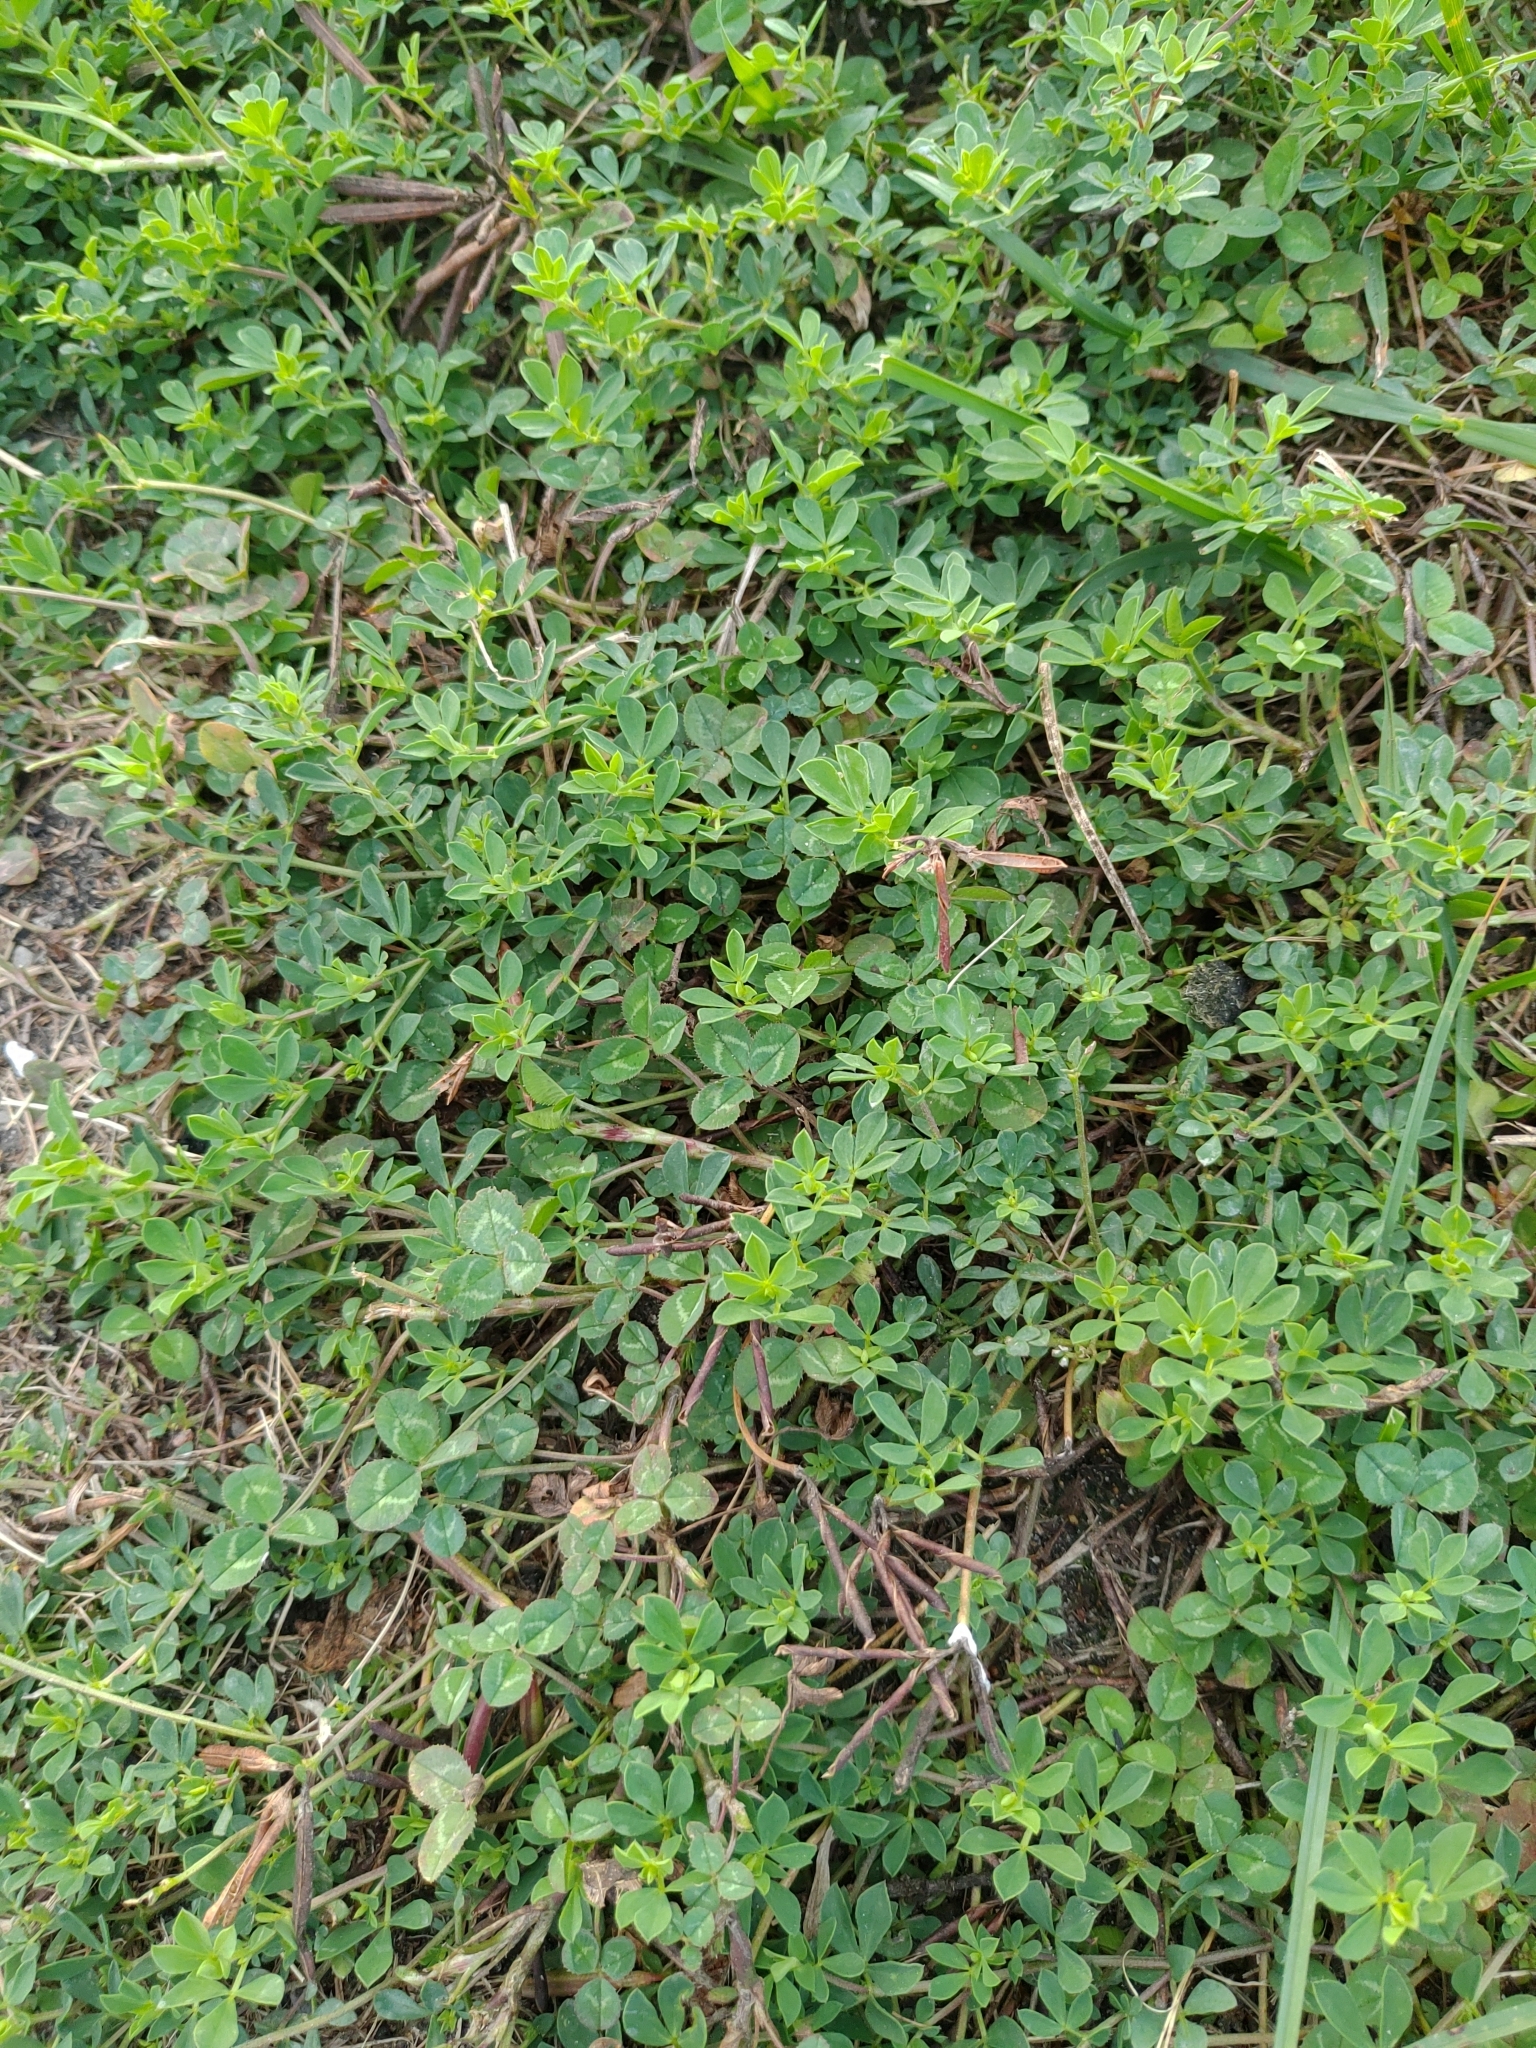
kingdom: Plantae
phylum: Tracheophyta
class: Magnoliopsida
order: Fabales
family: Fabaceae
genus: Lotus
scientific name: Lotus corniculatus
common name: Common bird's-foot-trefoil
